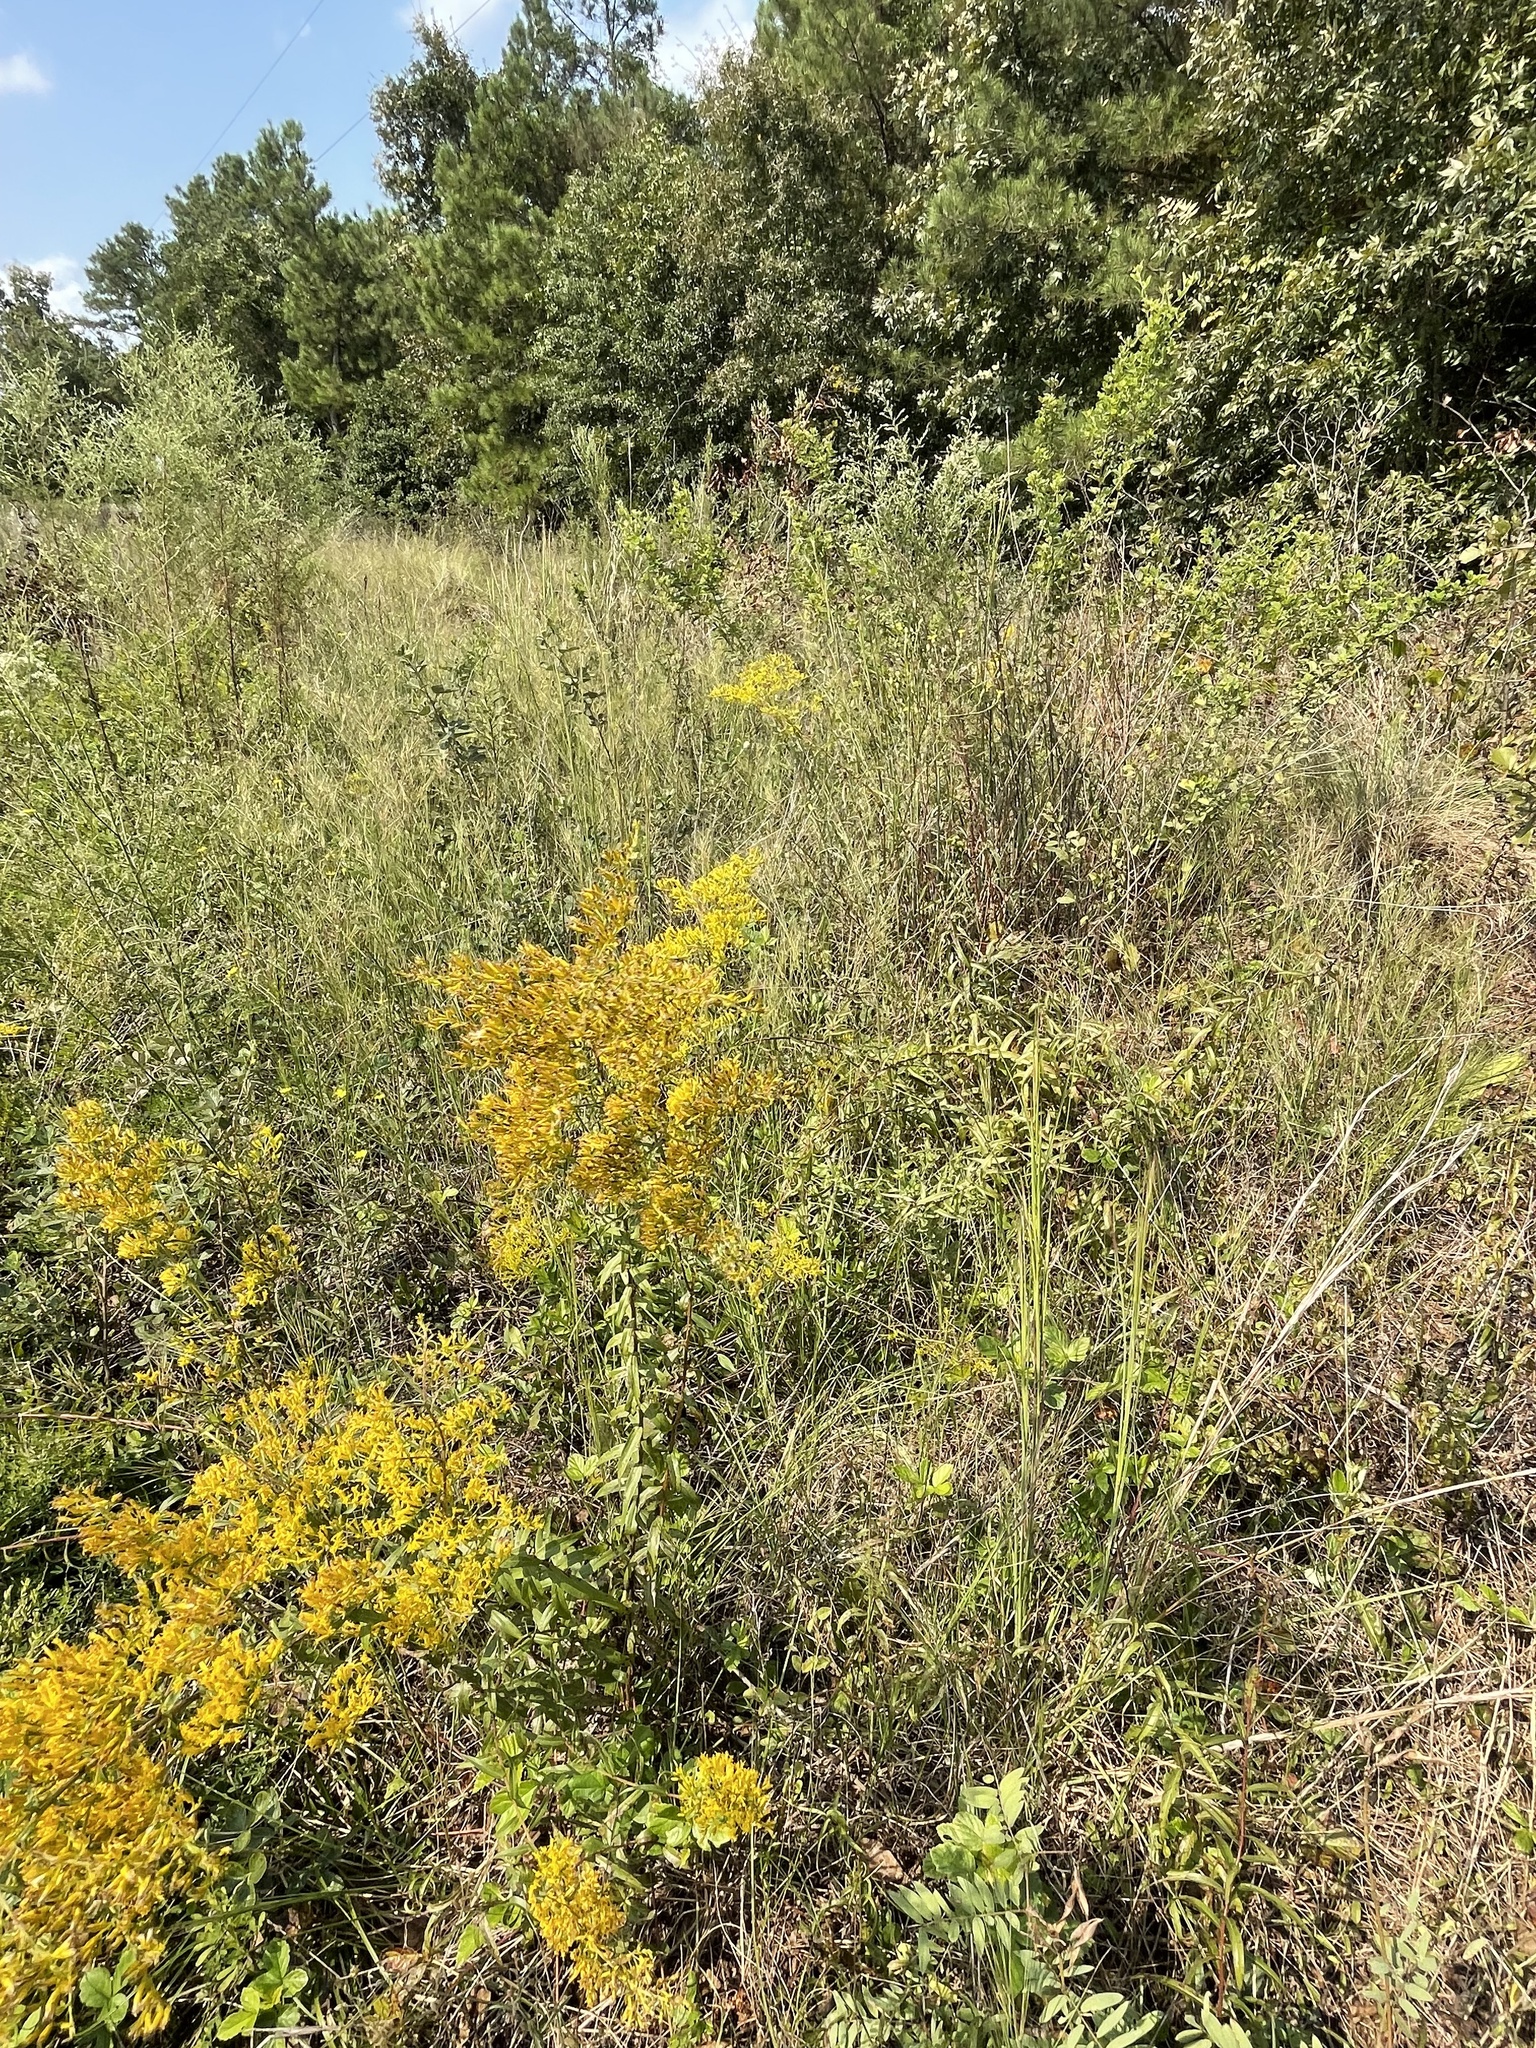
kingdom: Plantae
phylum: Tracheophyta
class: Magnoliopsida
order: Asterales
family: Asteraceae
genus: Solidago
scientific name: Solidago odora
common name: Anise-scented goldenrod
